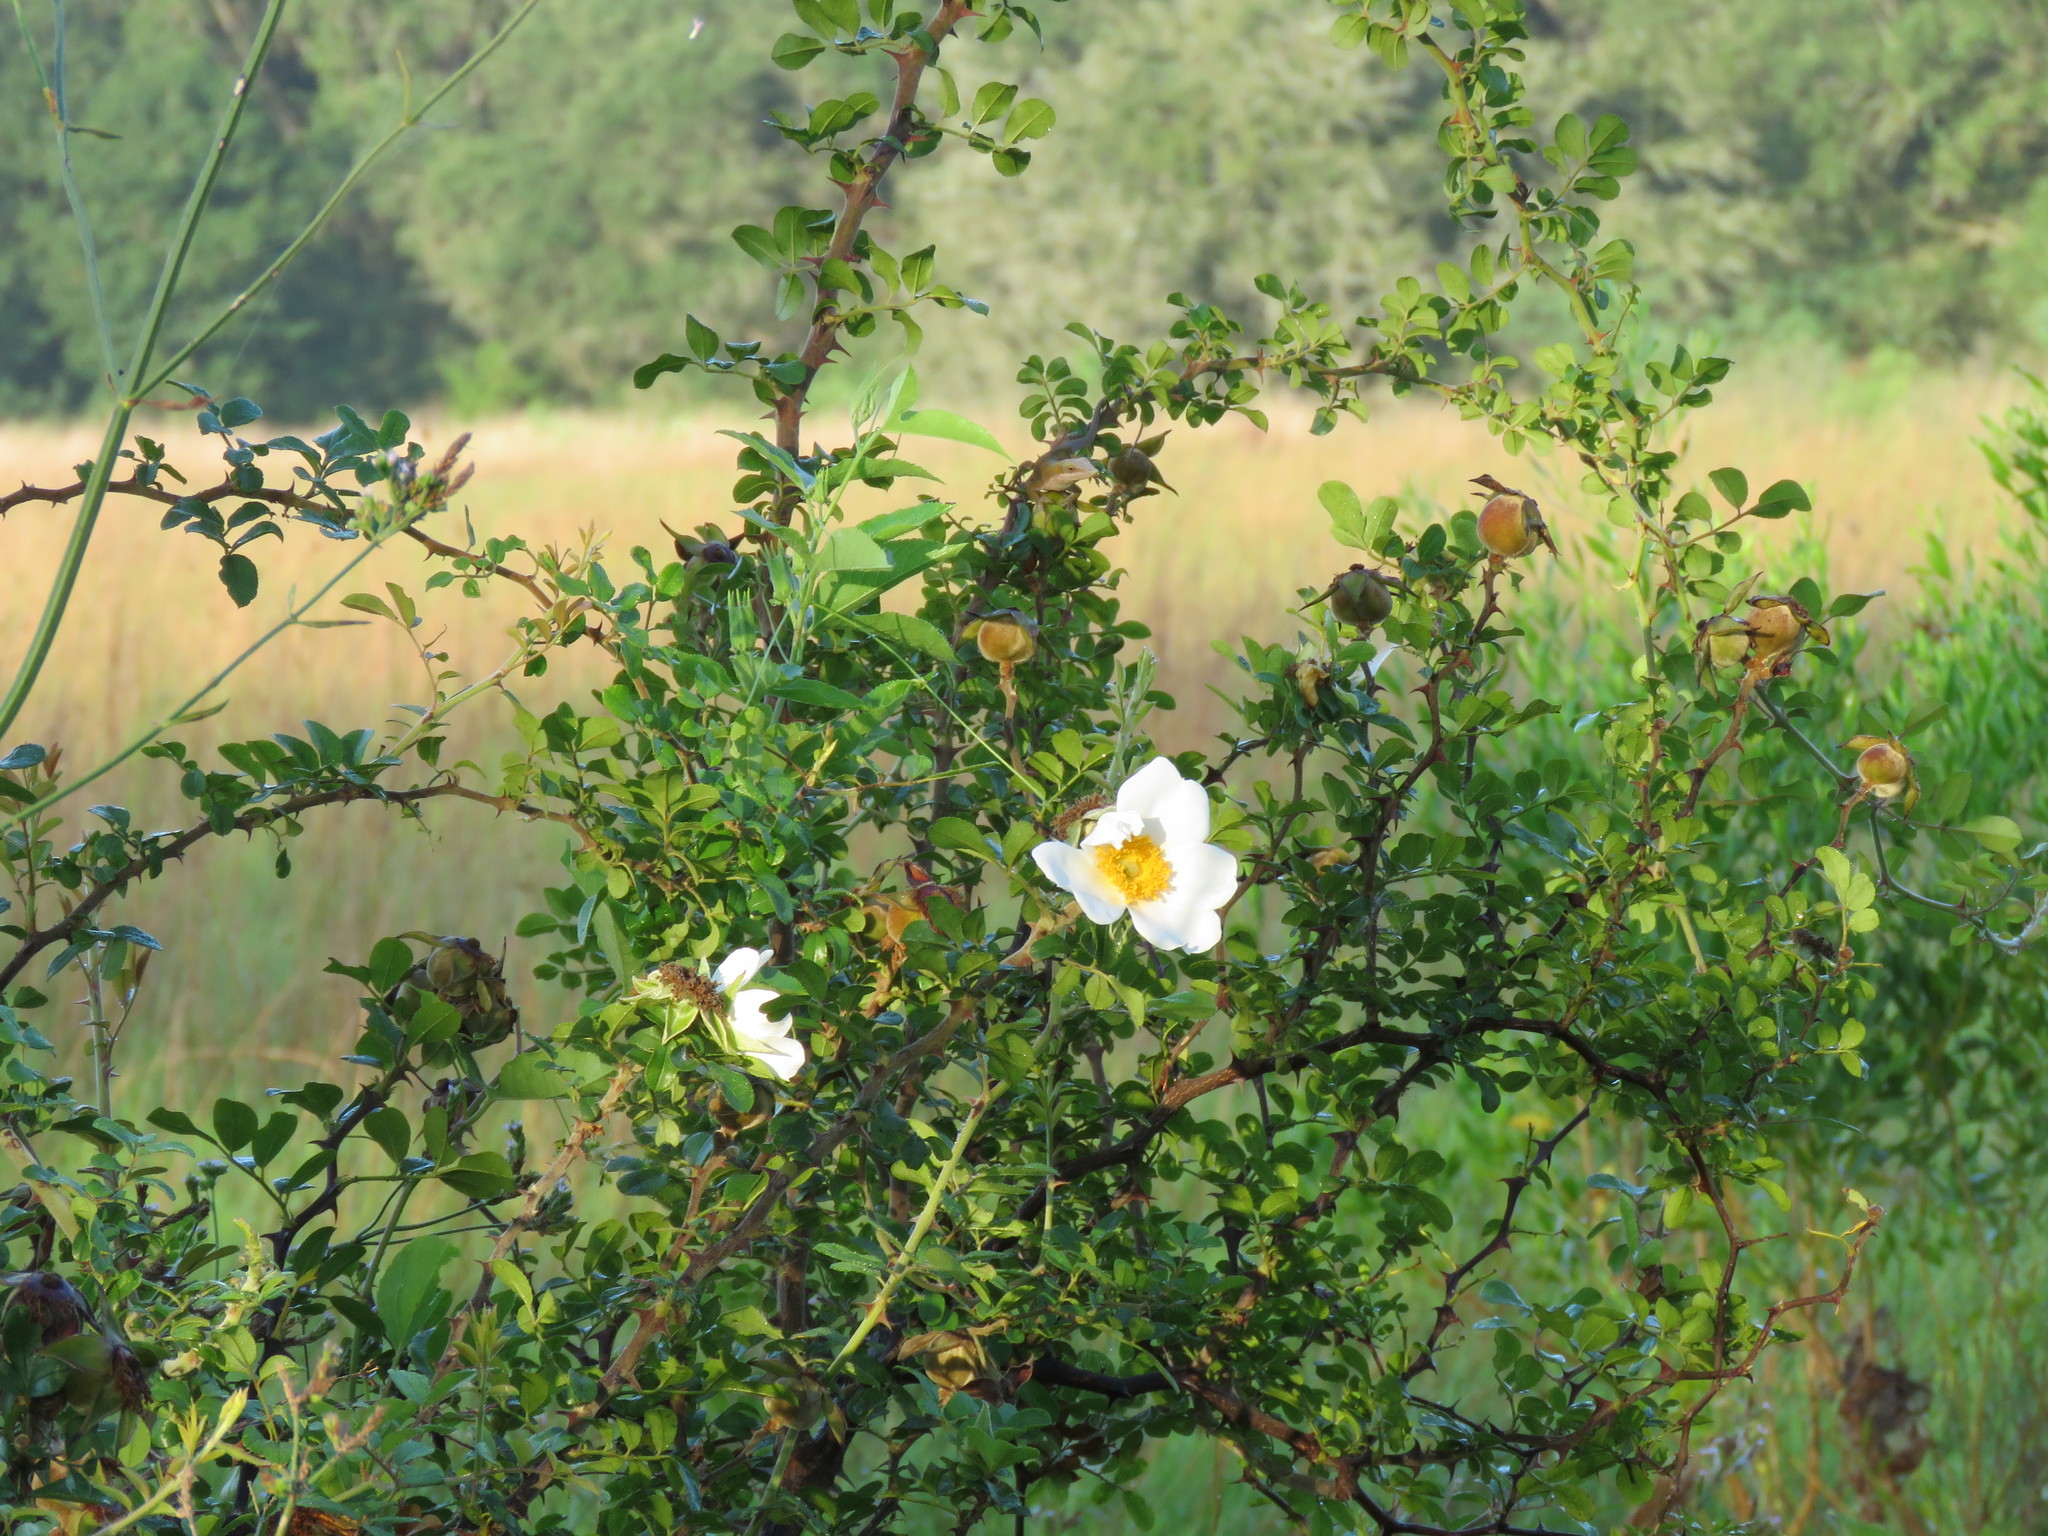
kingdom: Plantae
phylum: Tracheophyta
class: Magnoliopsida
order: Rosales
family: Rosaceae
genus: Rosa
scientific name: Rosa bracteata
